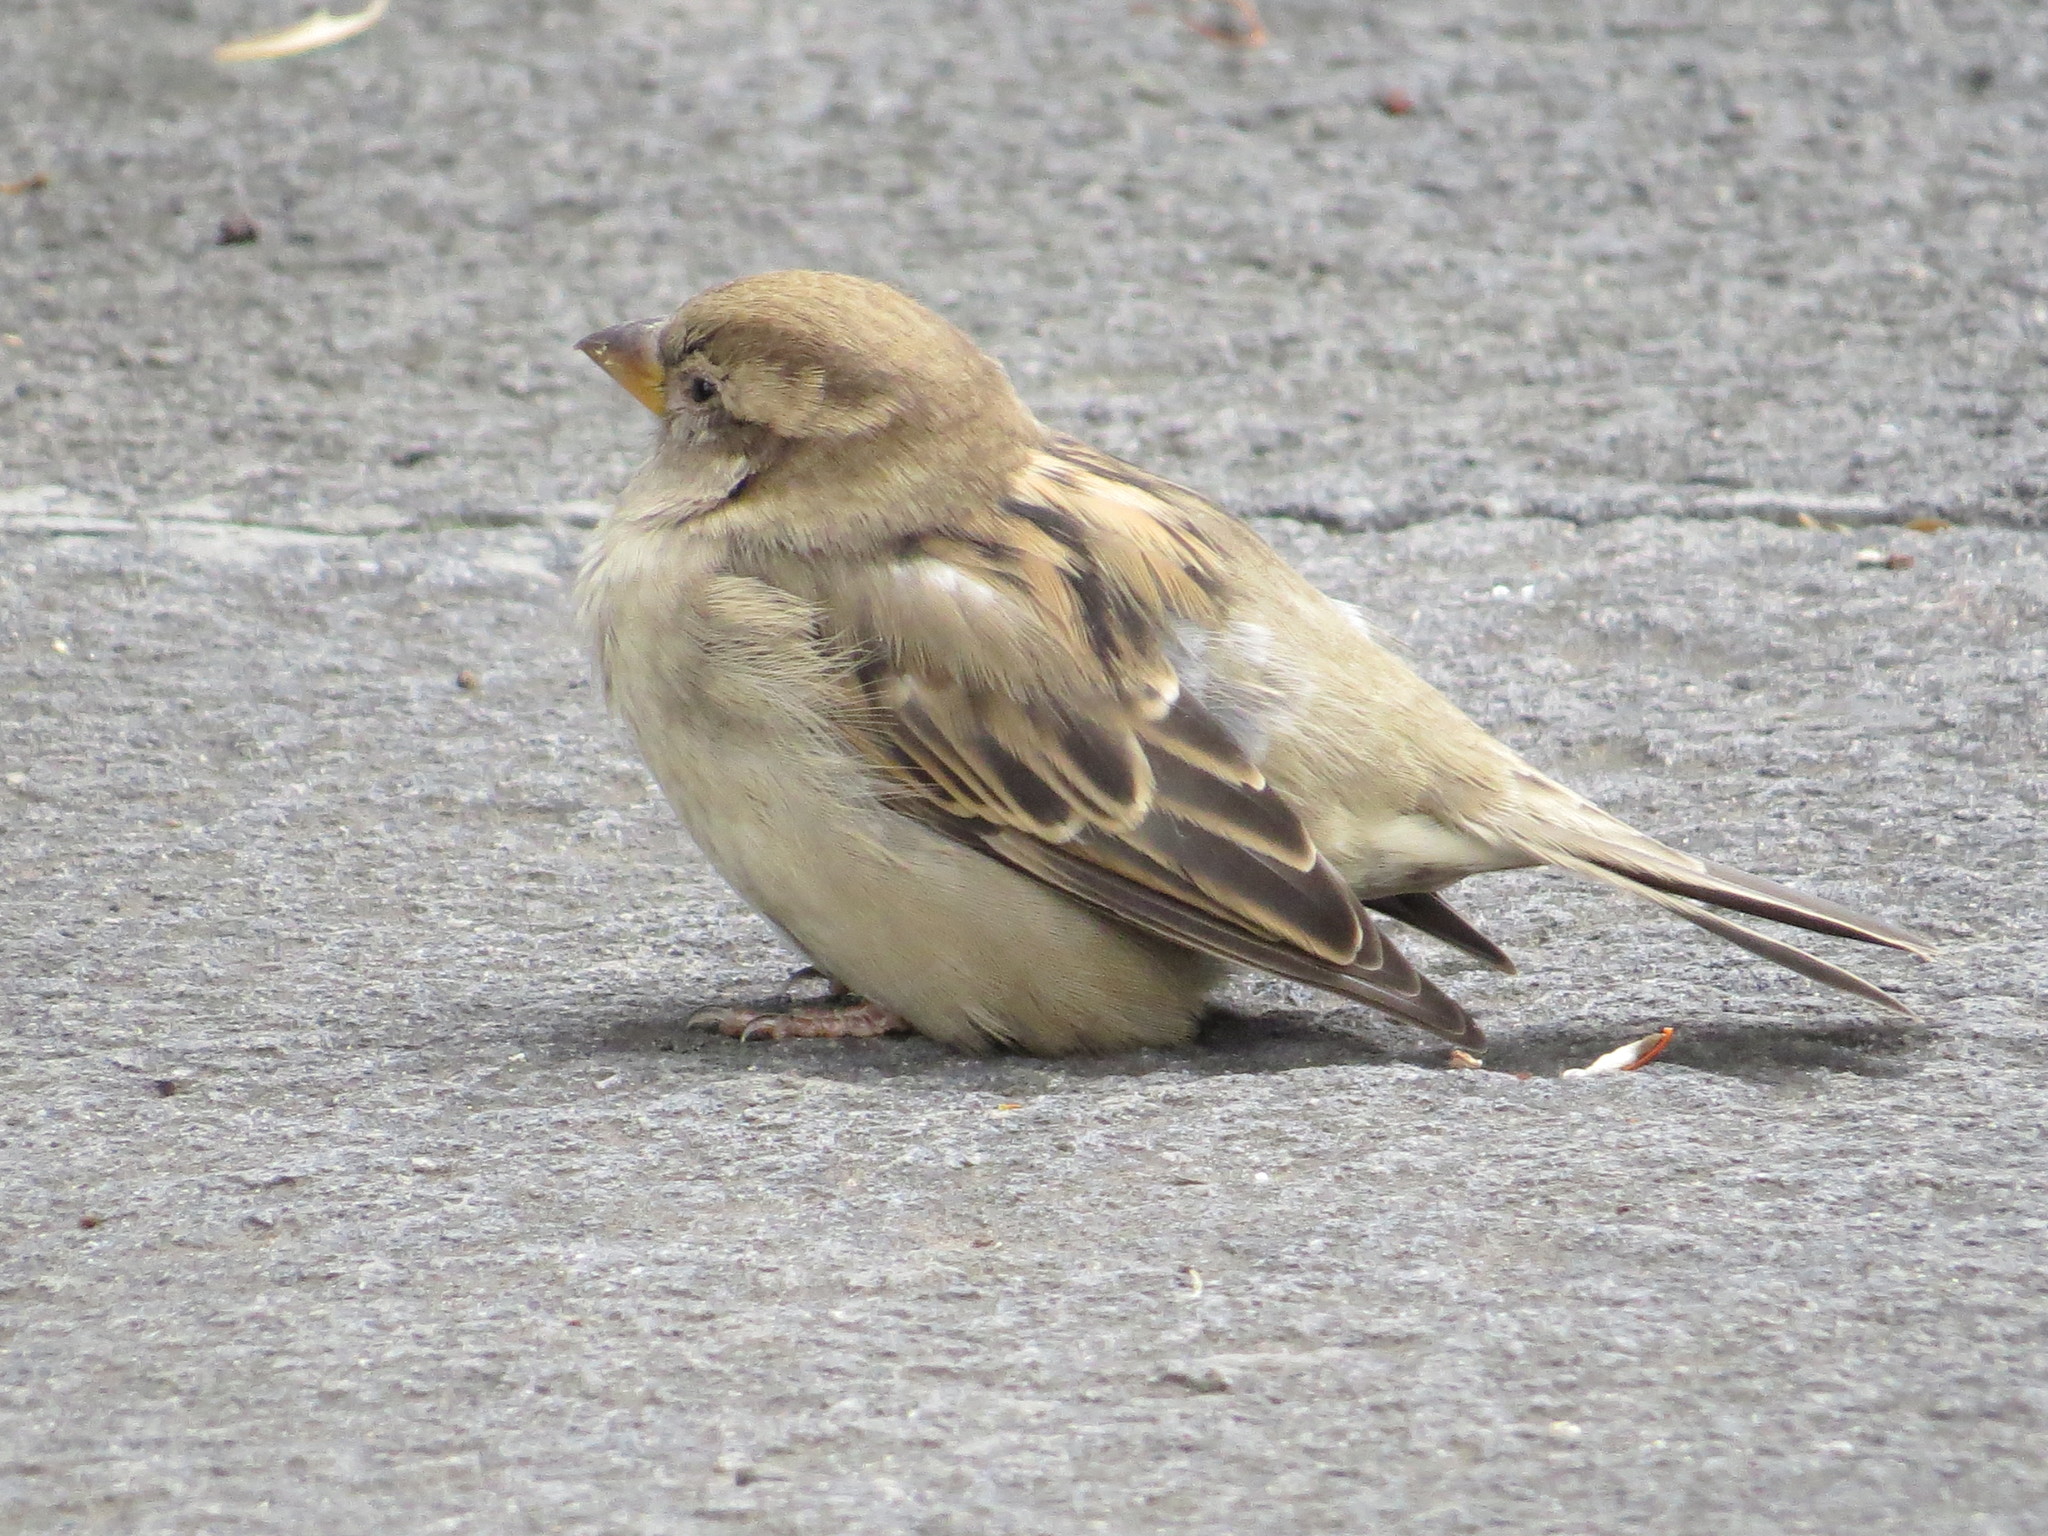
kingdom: Animalia
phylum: Chordata
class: Aves
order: Passeriformes
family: Passeridae
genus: Passer
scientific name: Passer domesticus
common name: House sparrow
